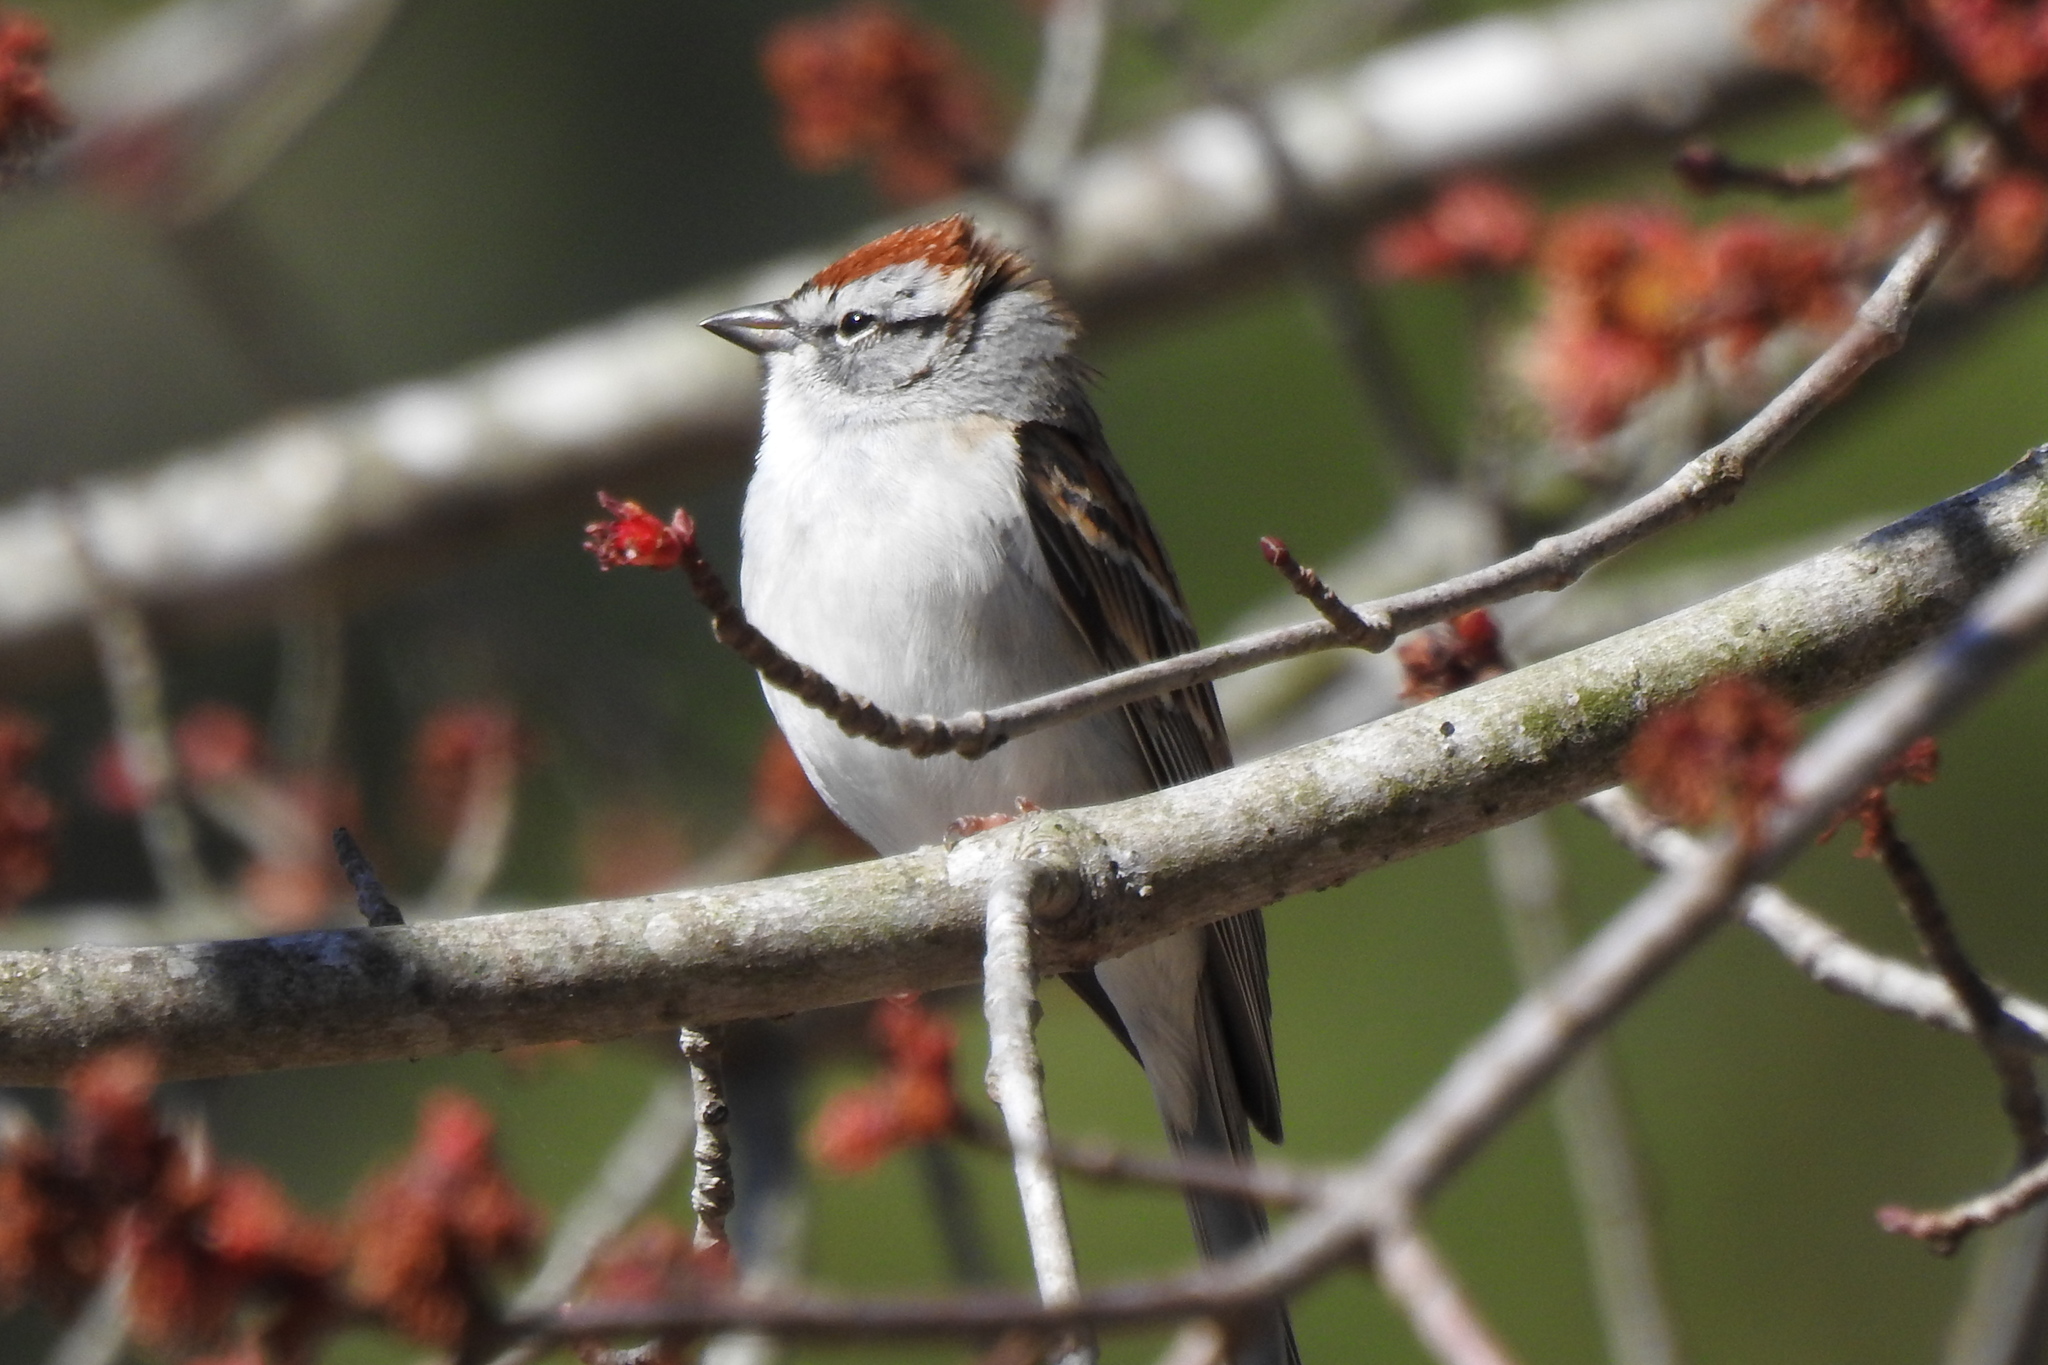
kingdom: Animalia
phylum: Chordata
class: Aves
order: Passeriformes
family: Passerellidae
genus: Spizella
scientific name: Spizella passerina
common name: Chipping sparrow
